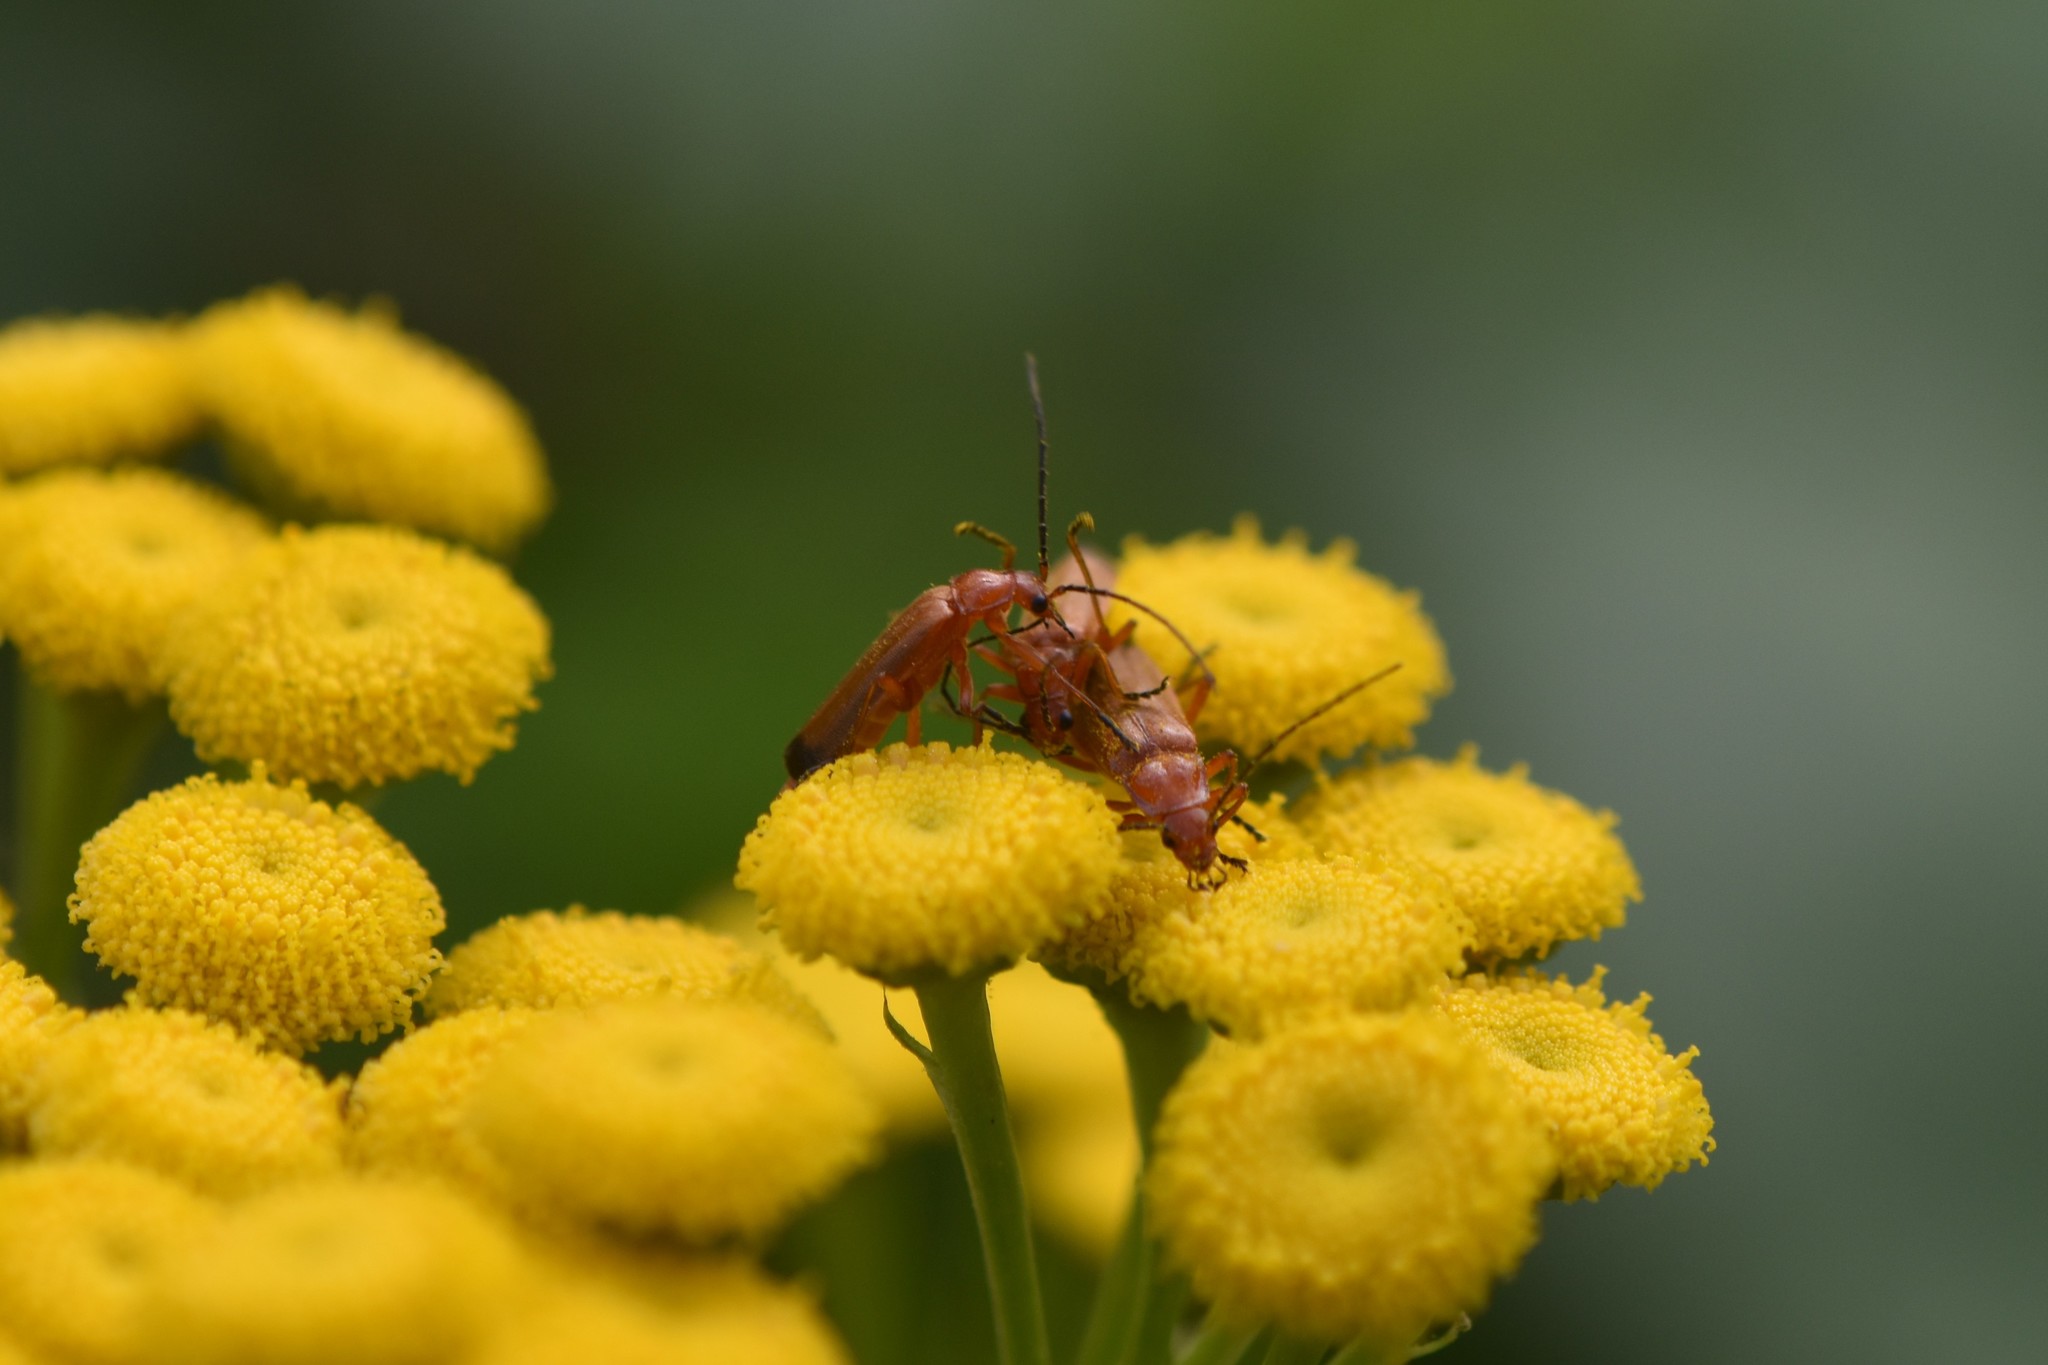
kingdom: Animalia
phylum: Arthropoda
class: Insecta
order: Coleoptera
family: Cantharidae
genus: Rhagonycha
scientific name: Rhagonycha fulva
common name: Common red soldier beetle
